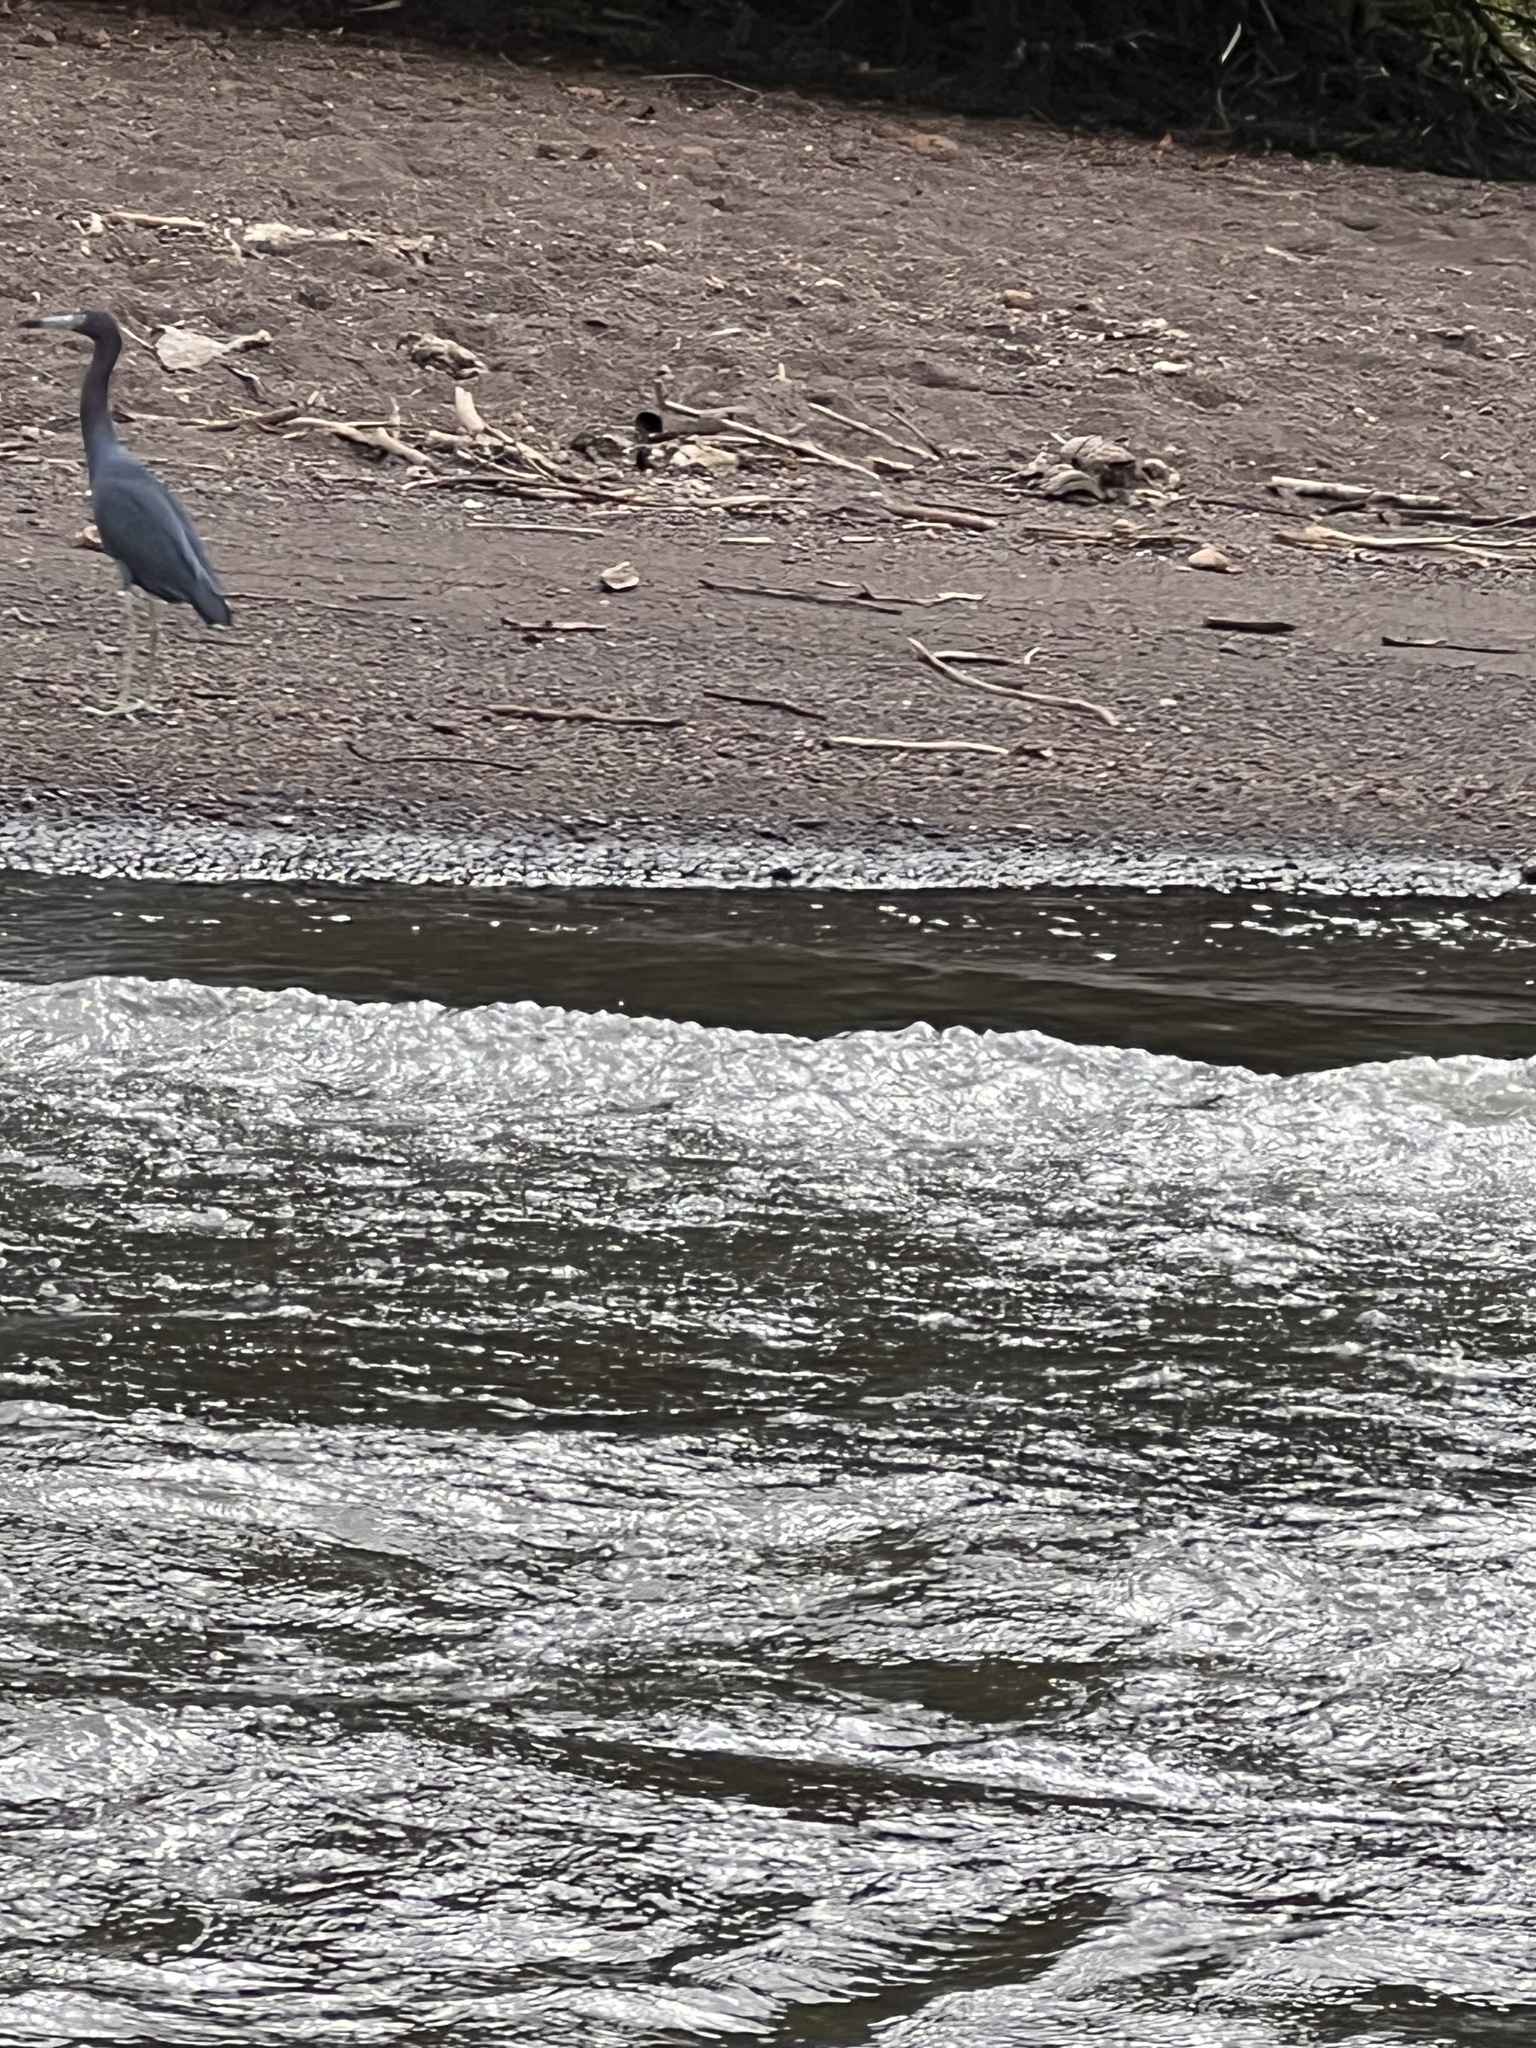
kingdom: Animalia
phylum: Chordata
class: Aves
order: Pelecaniformes
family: Ardeidae
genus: Egretta
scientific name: Egretta caerulea
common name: Little blue heron
